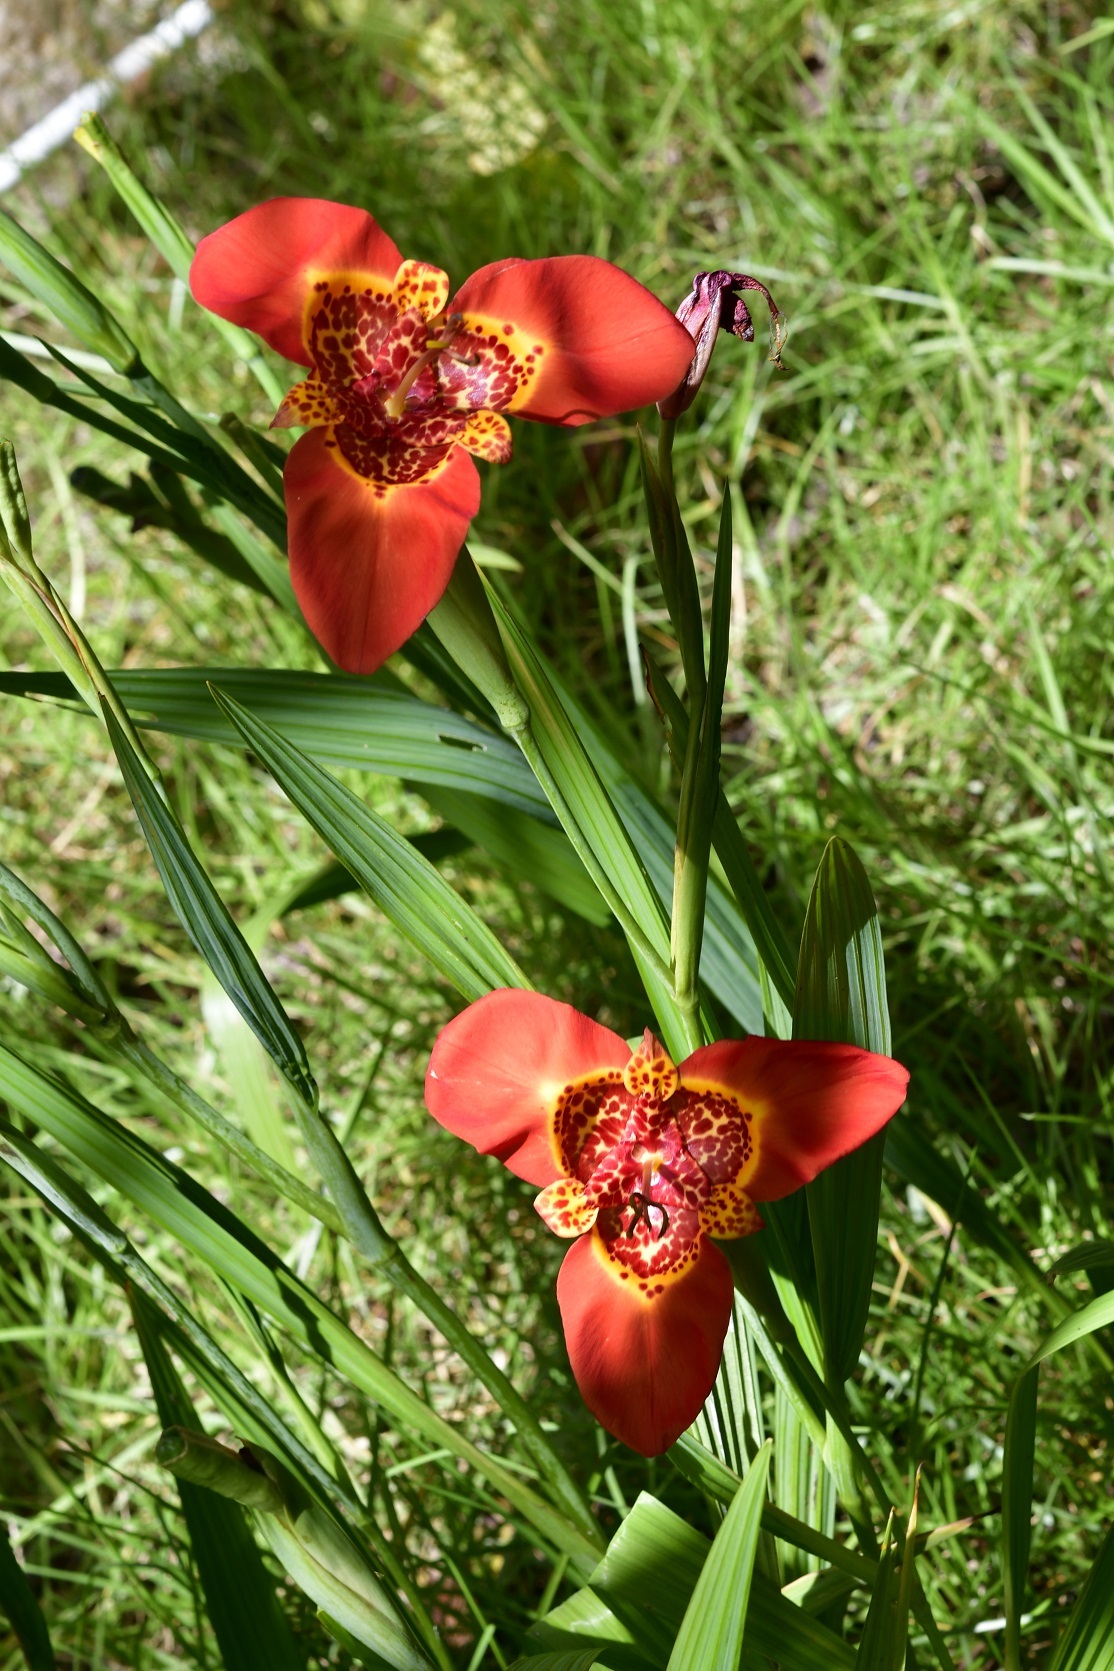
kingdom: Plantae
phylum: Tracheophyta
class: Liliopsida
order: Asparagales
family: Iridaceae
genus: Tigridia
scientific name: Tigridia pavonia
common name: Peacock-flower
